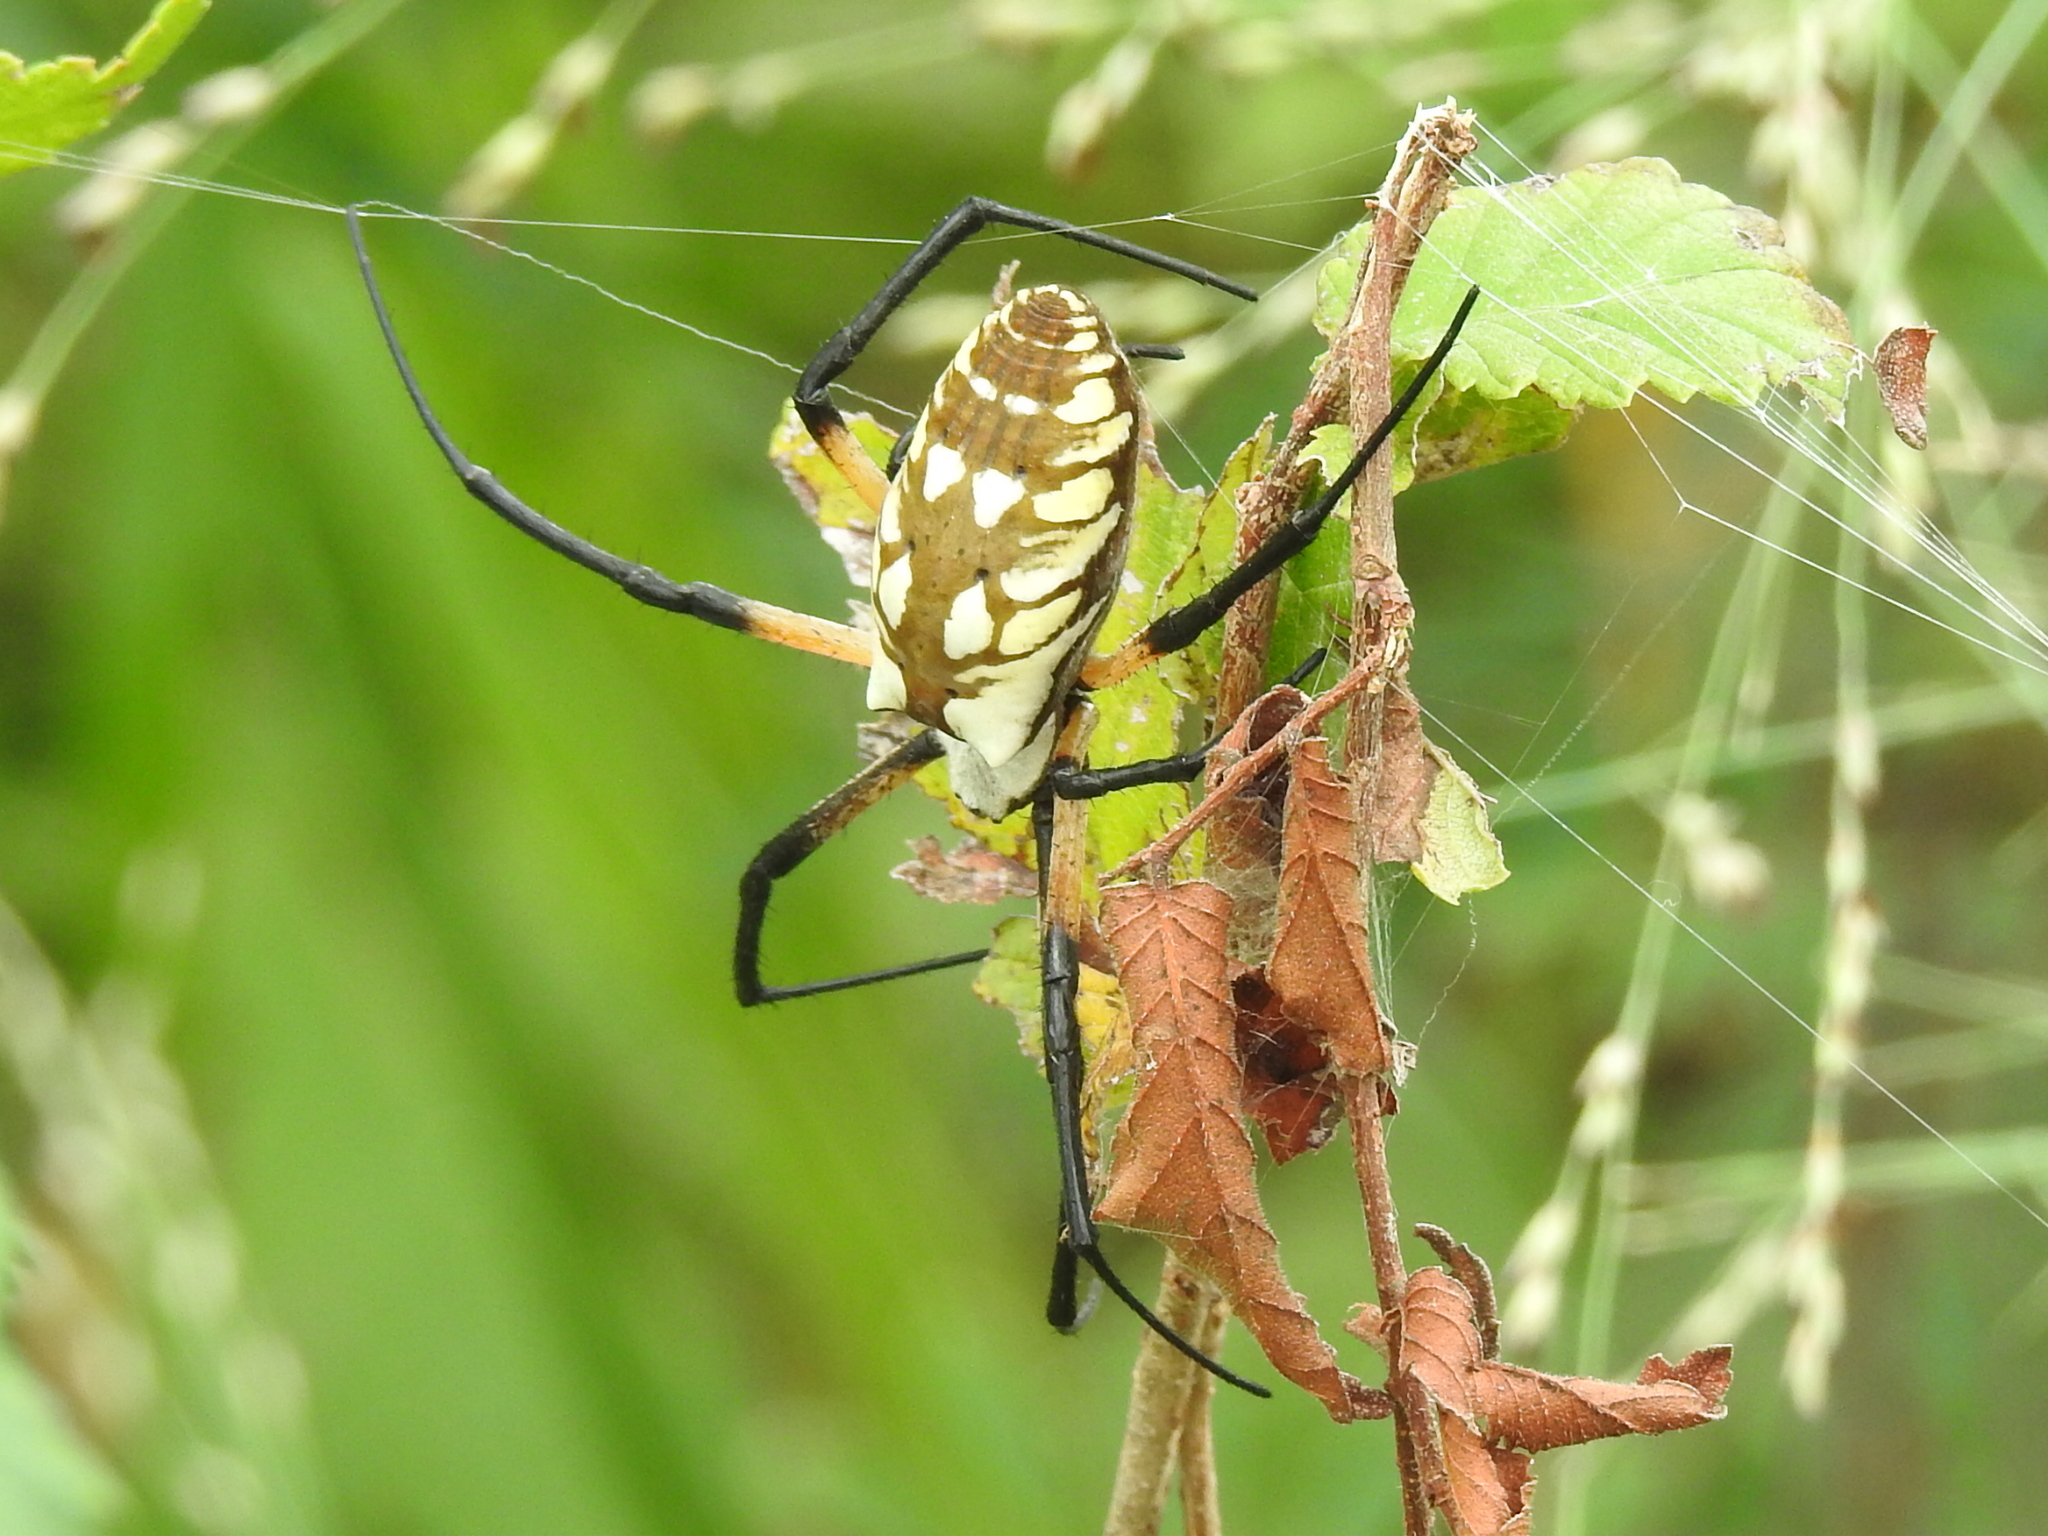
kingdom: Animalia
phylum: Arthropoda
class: Arachnida
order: Araneae
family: Araneidae
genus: Argiope
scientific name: Argiope aurantia
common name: Orb weavers
